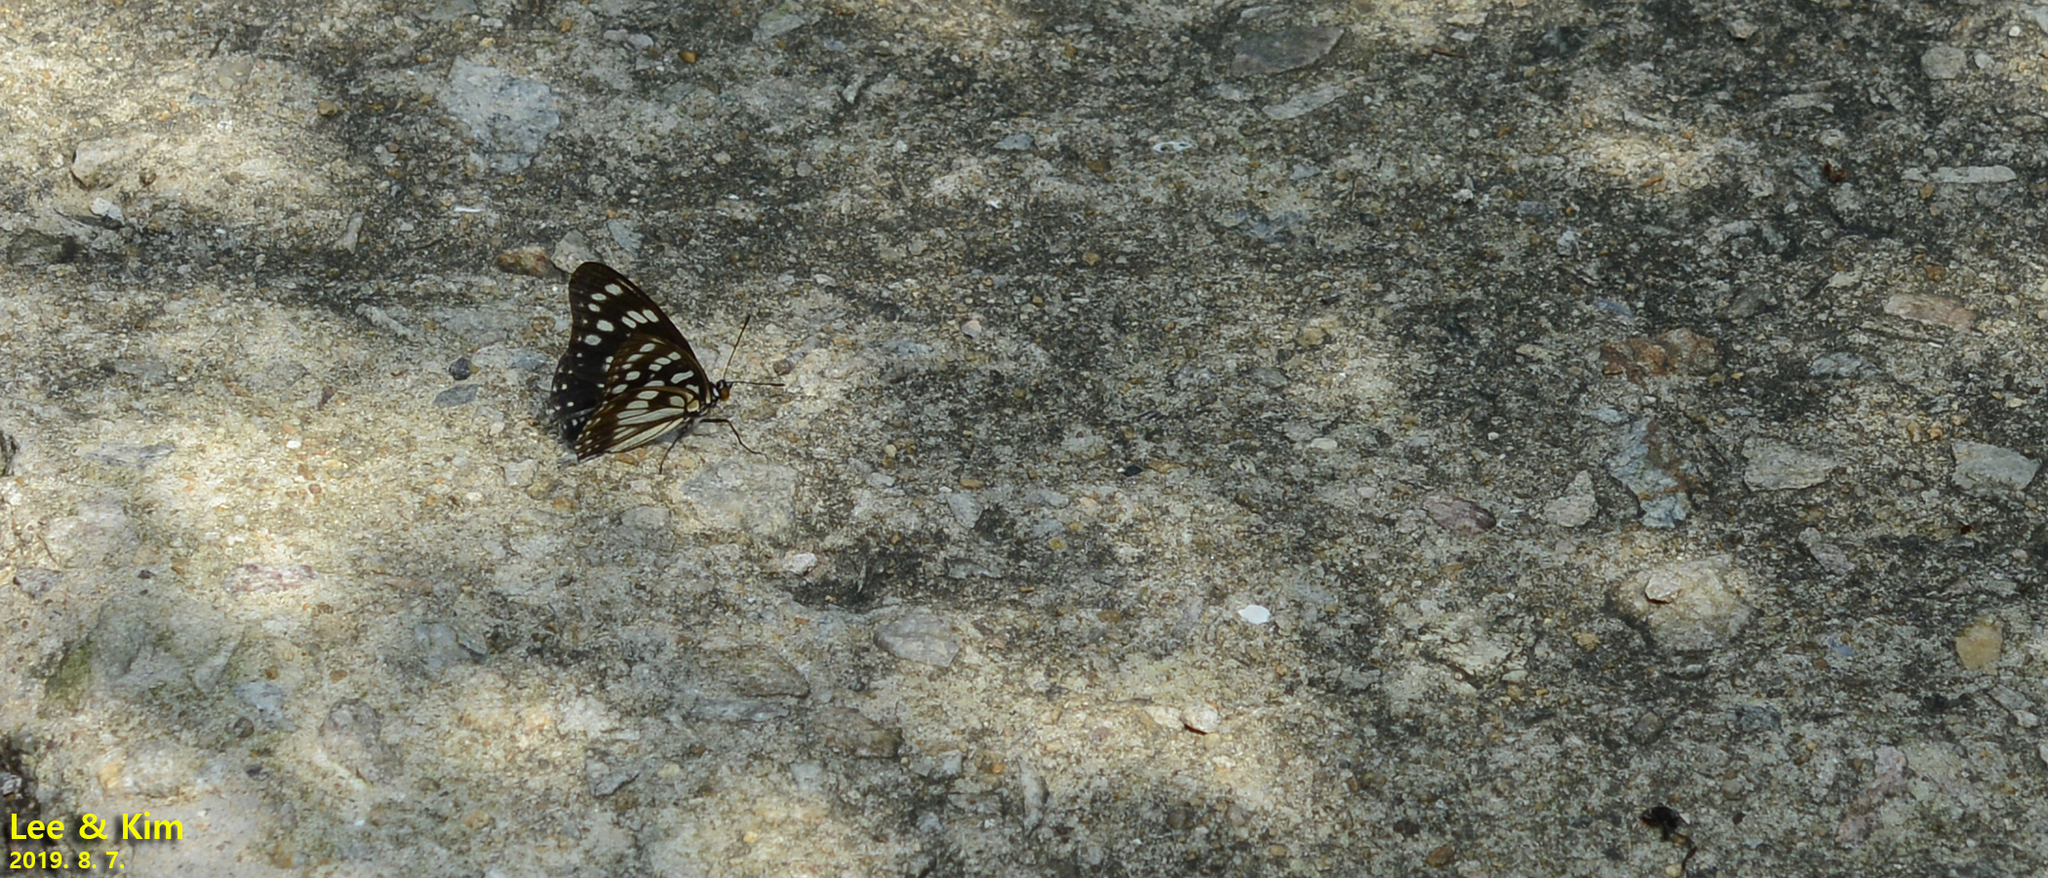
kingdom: Animalia
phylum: Arthropoda
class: Insecta
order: Lepidoptera
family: Nymphalidae
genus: Hestina
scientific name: Hestina persimilis
